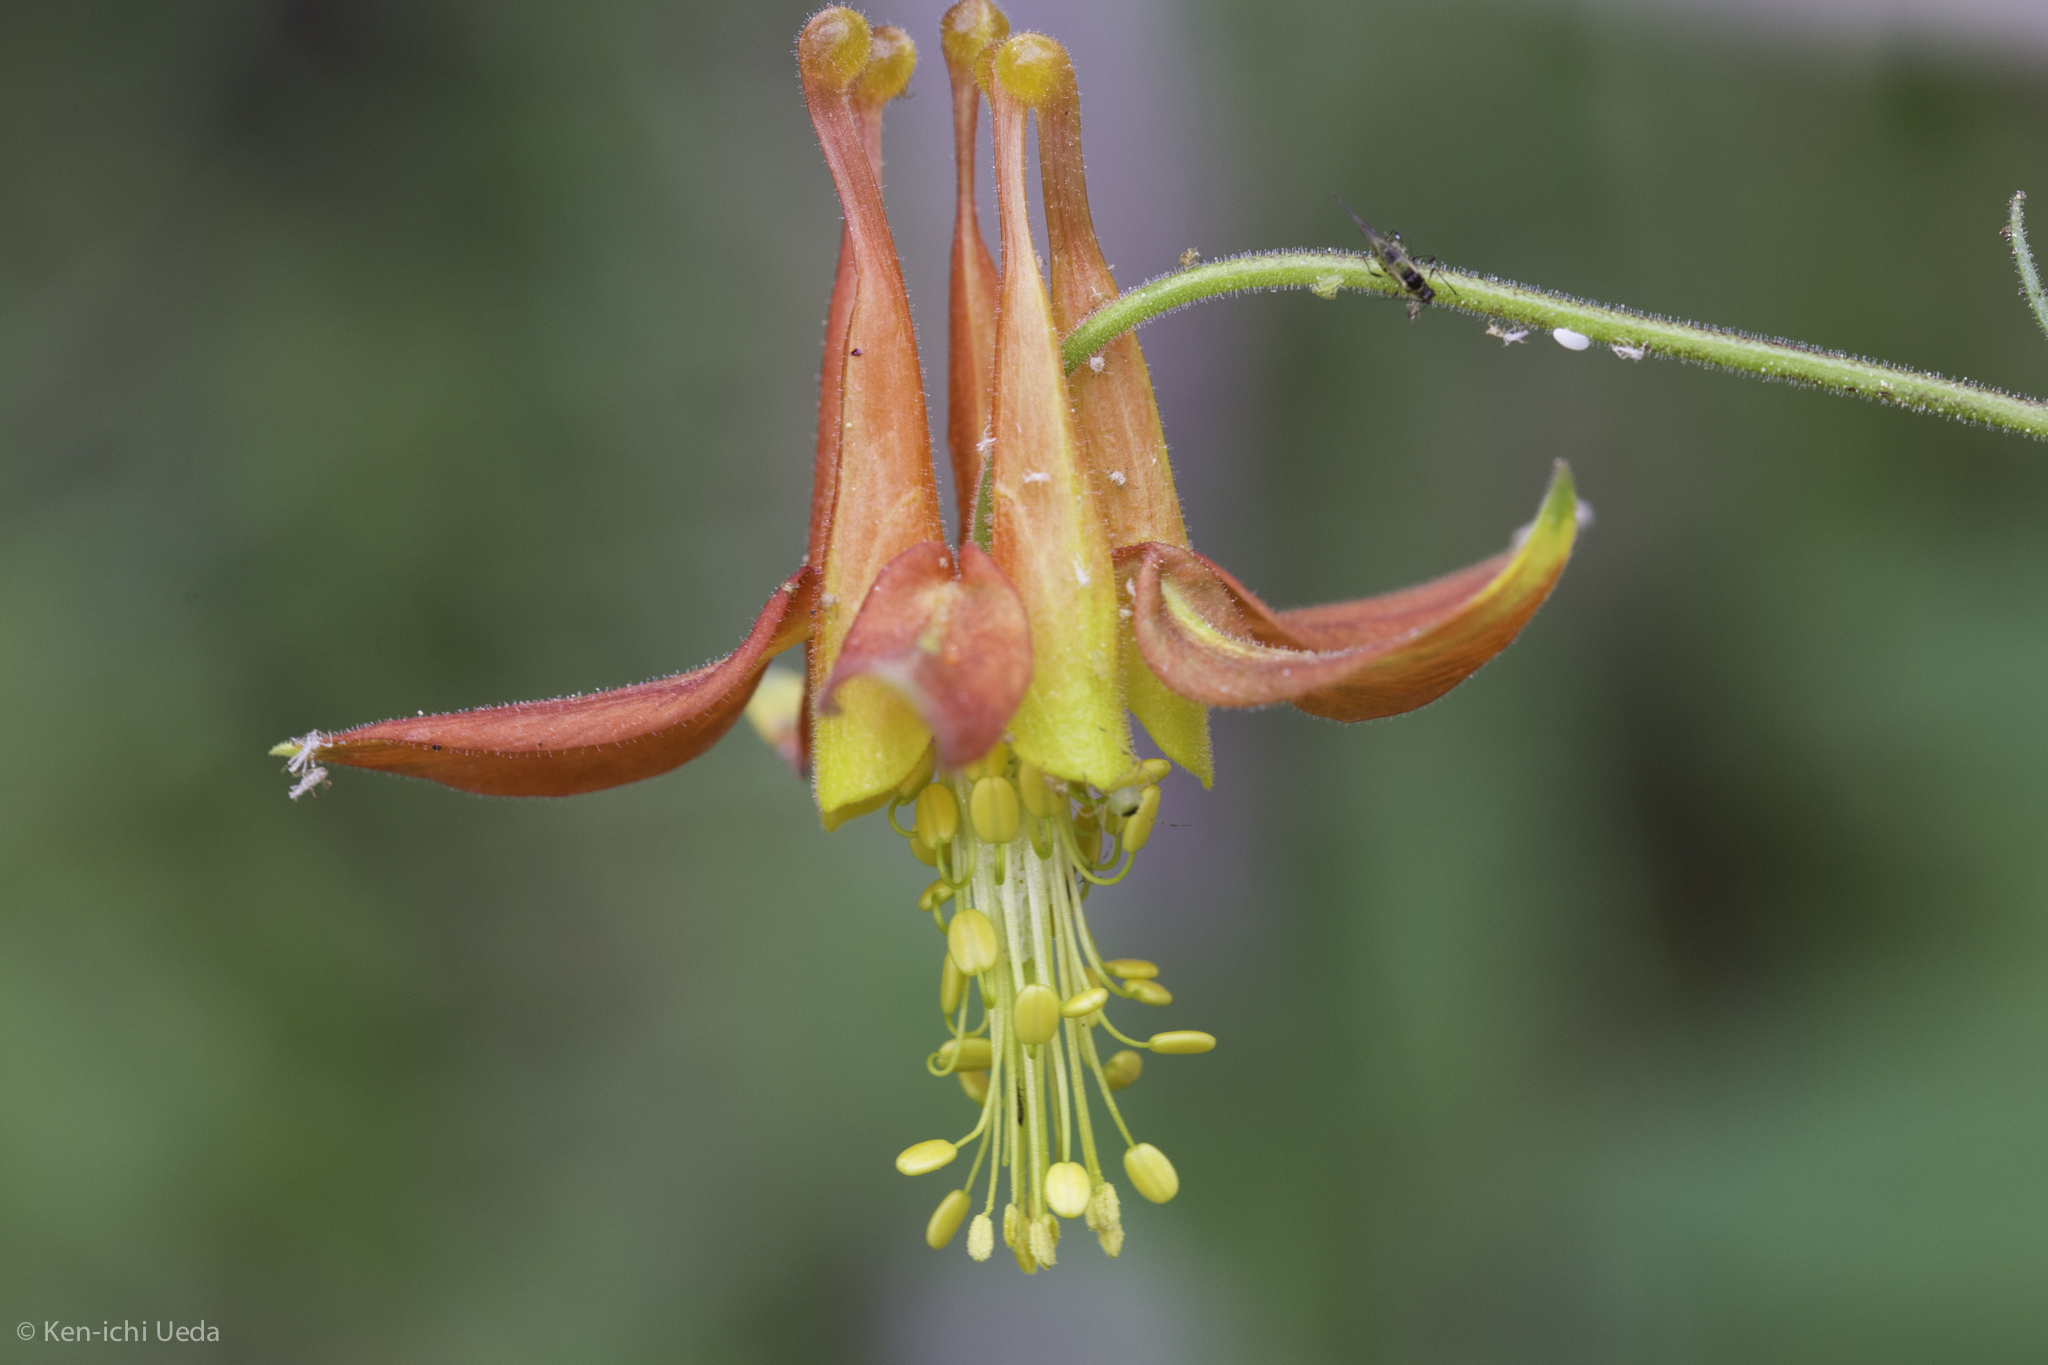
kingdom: Plantae
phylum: Tracheophyta
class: Magnoliopsida
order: Ranunculales
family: Ranunculaceae
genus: Aquilegia
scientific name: Aquilegia formosa
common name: Sitka columbine
